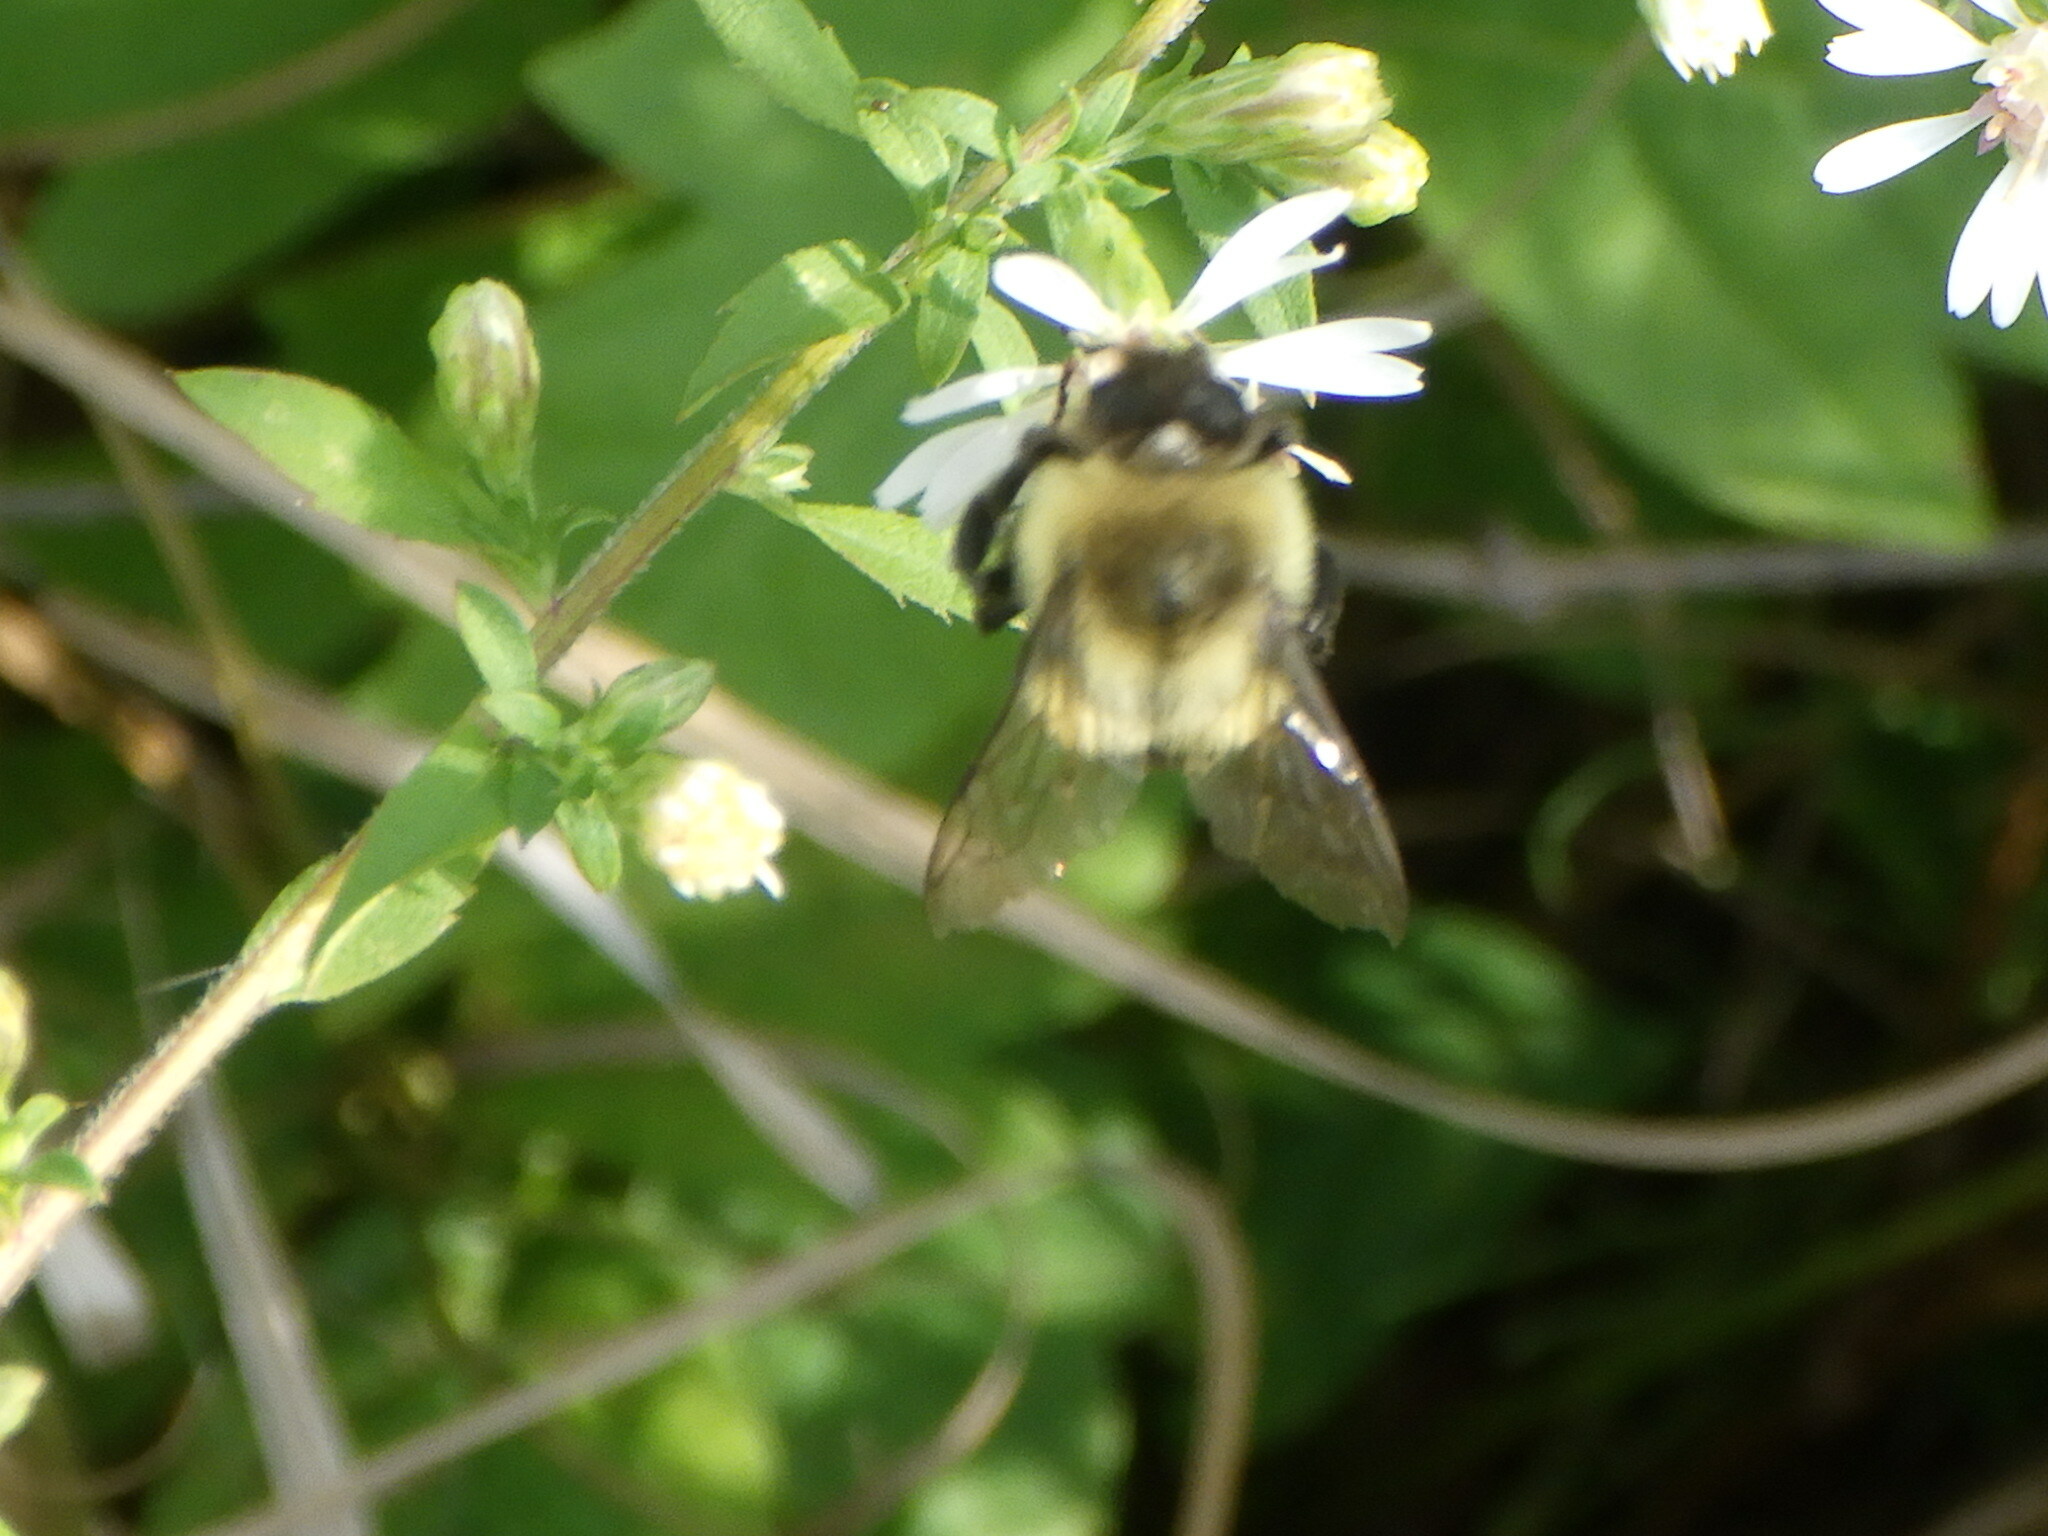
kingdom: Animalia
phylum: Arthropoda
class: Insecta
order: Hymenoptera
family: Apidae
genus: Bombus
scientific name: Bombus impatiens
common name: Common eastern bumble bee
